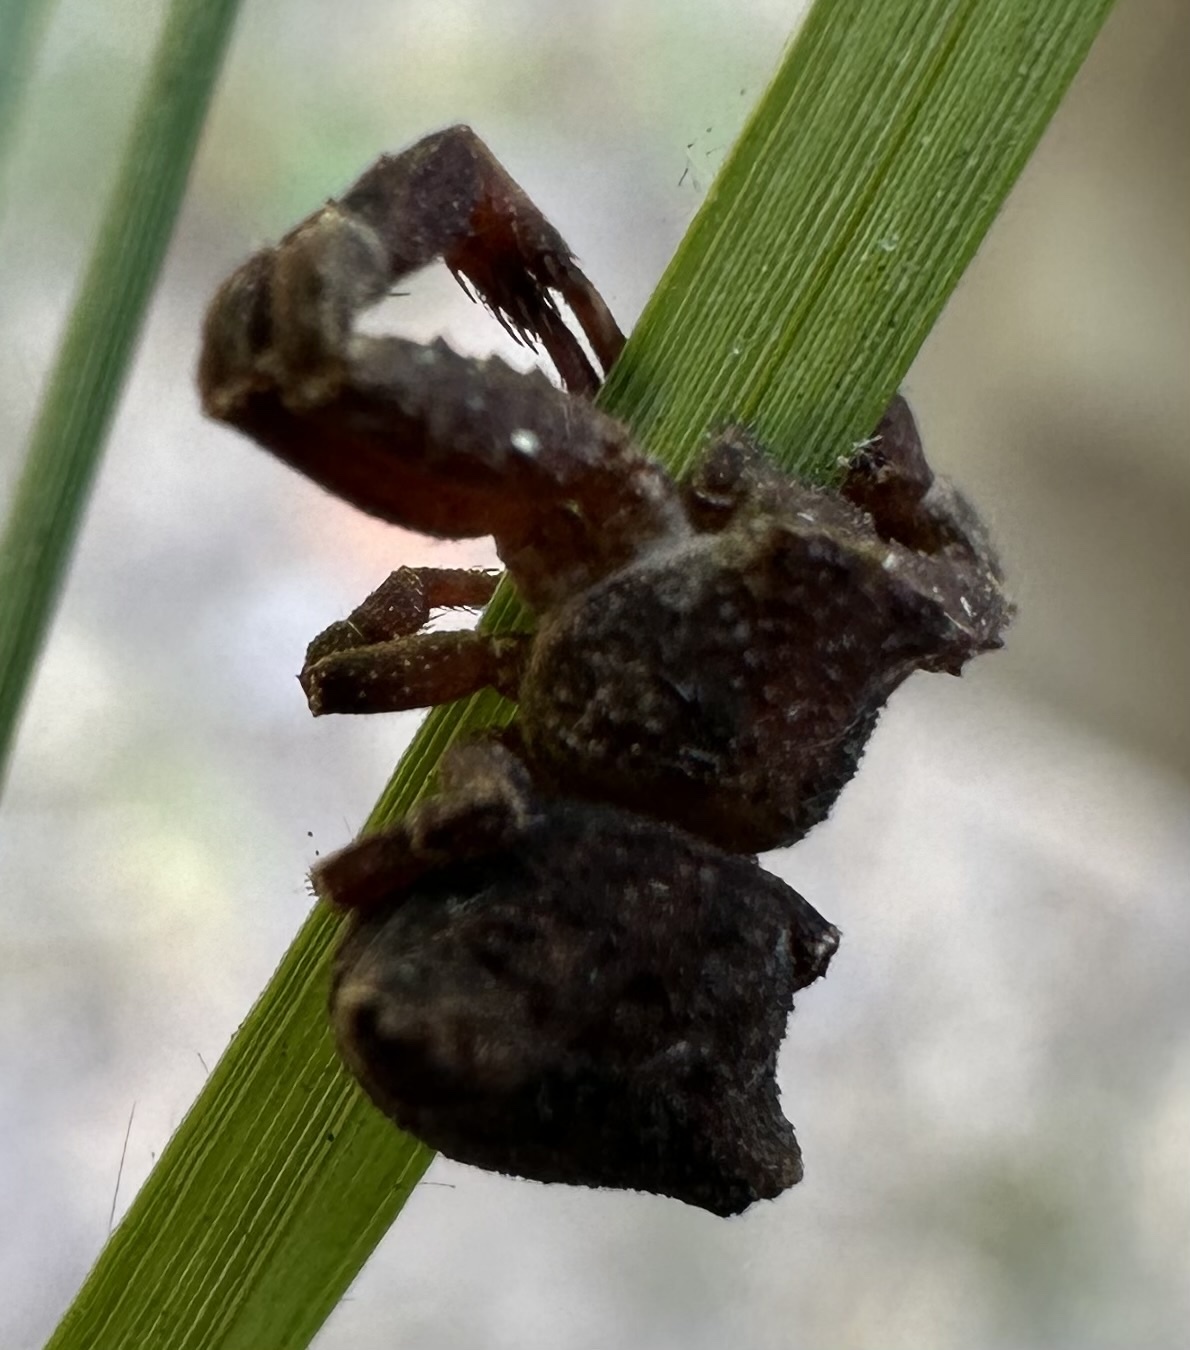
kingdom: Animalia
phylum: Arthropoda
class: Arachnida
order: Araneae
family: Thomisidae
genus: Thomisus
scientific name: Thomisus scrupeus
